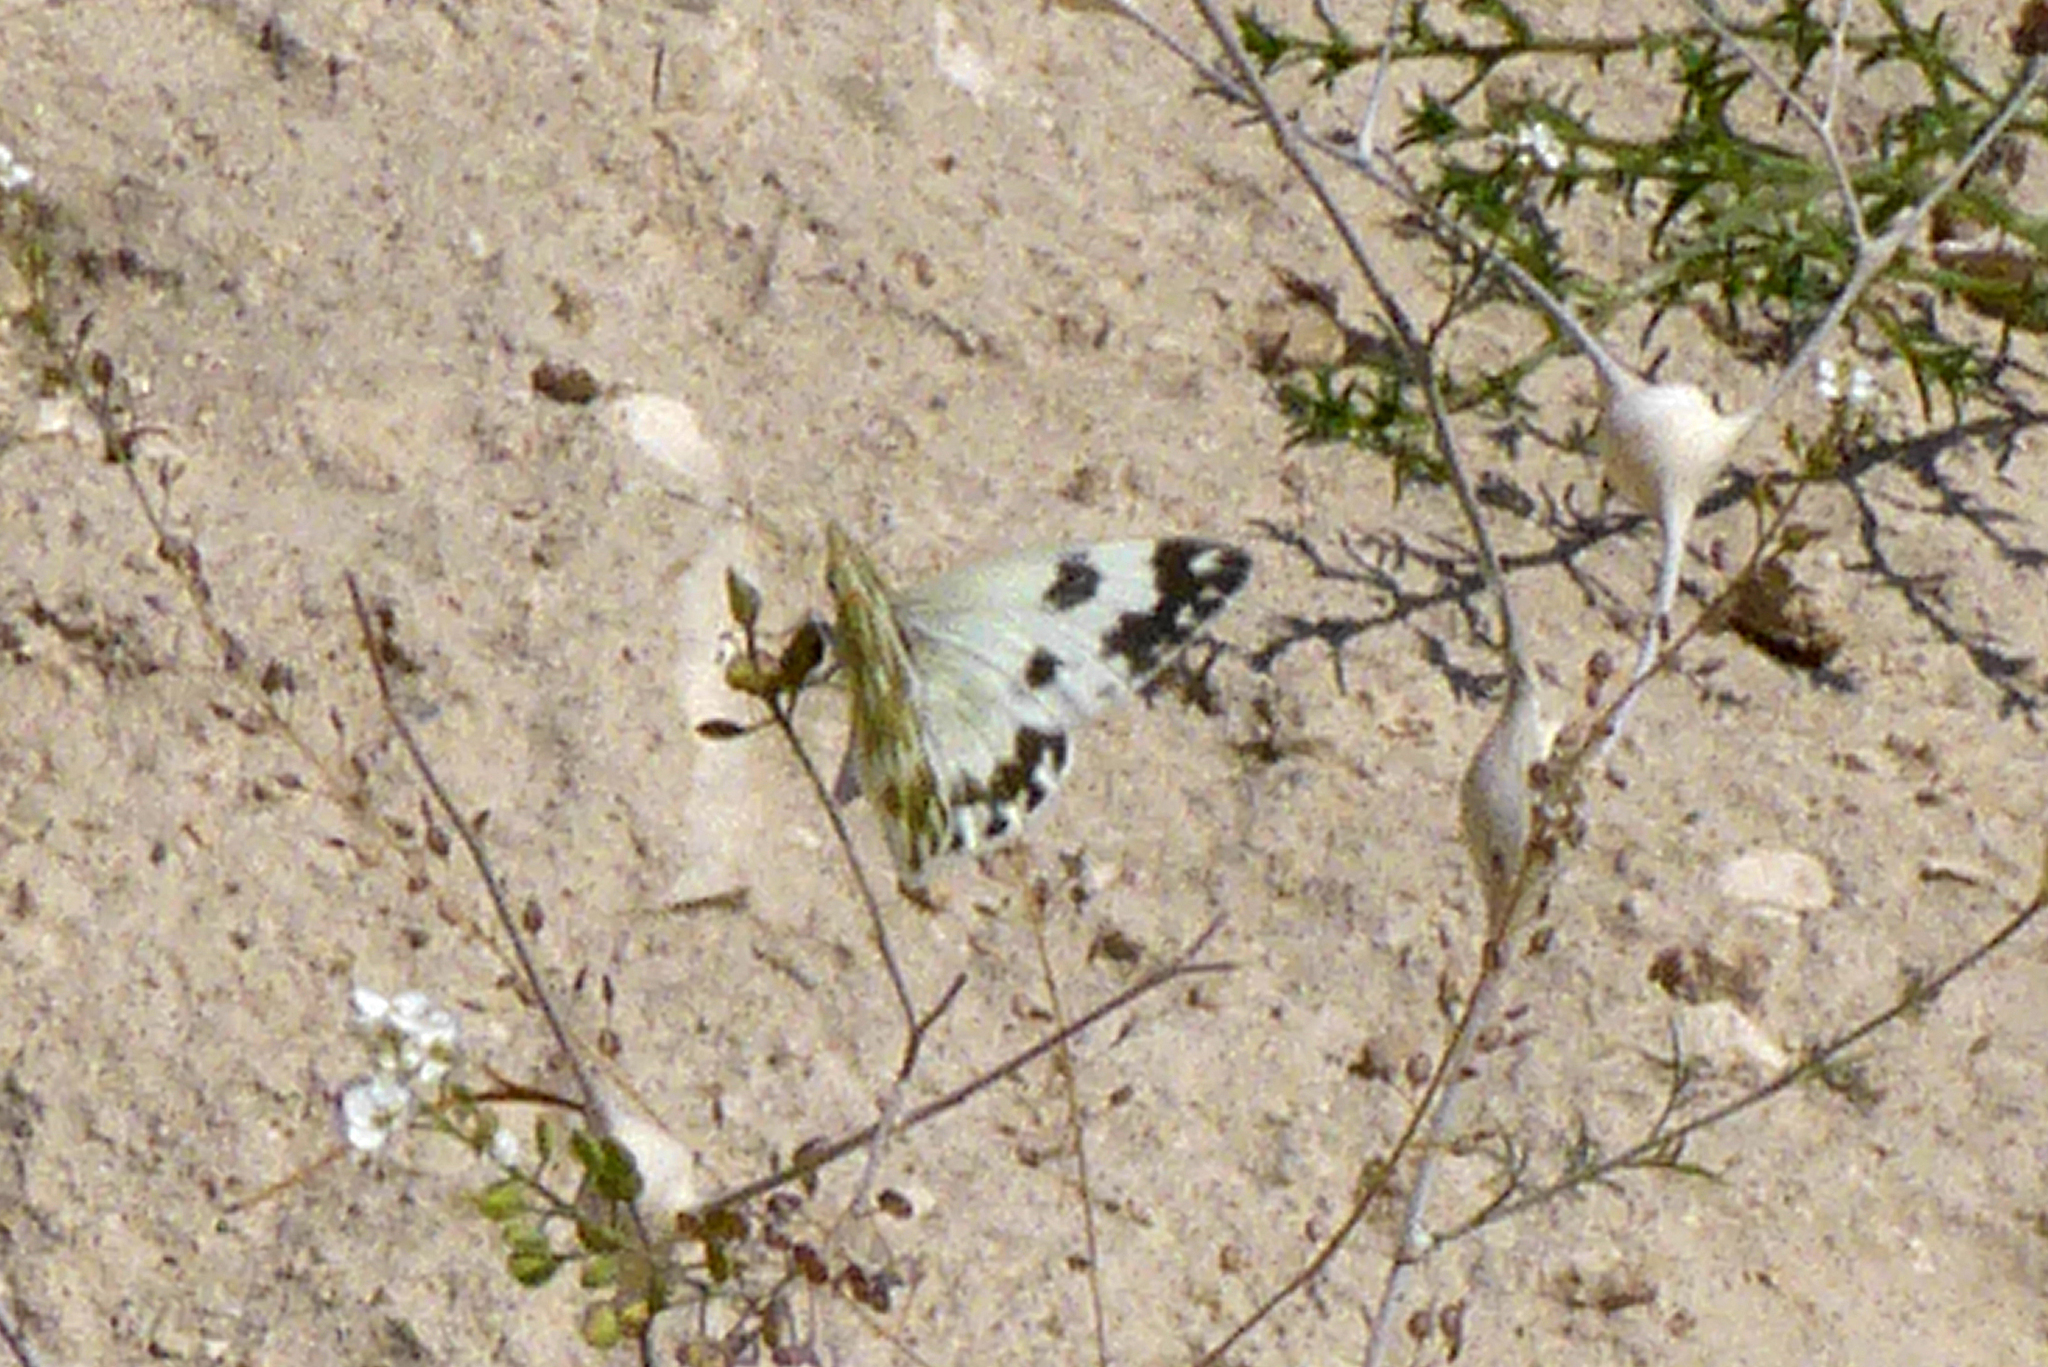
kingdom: Animalia
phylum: Arthropoda
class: Insecta
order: Lepidoptera
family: Pieridae
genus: Pontia
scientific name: Pontia edusa
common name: Eastern bath white
